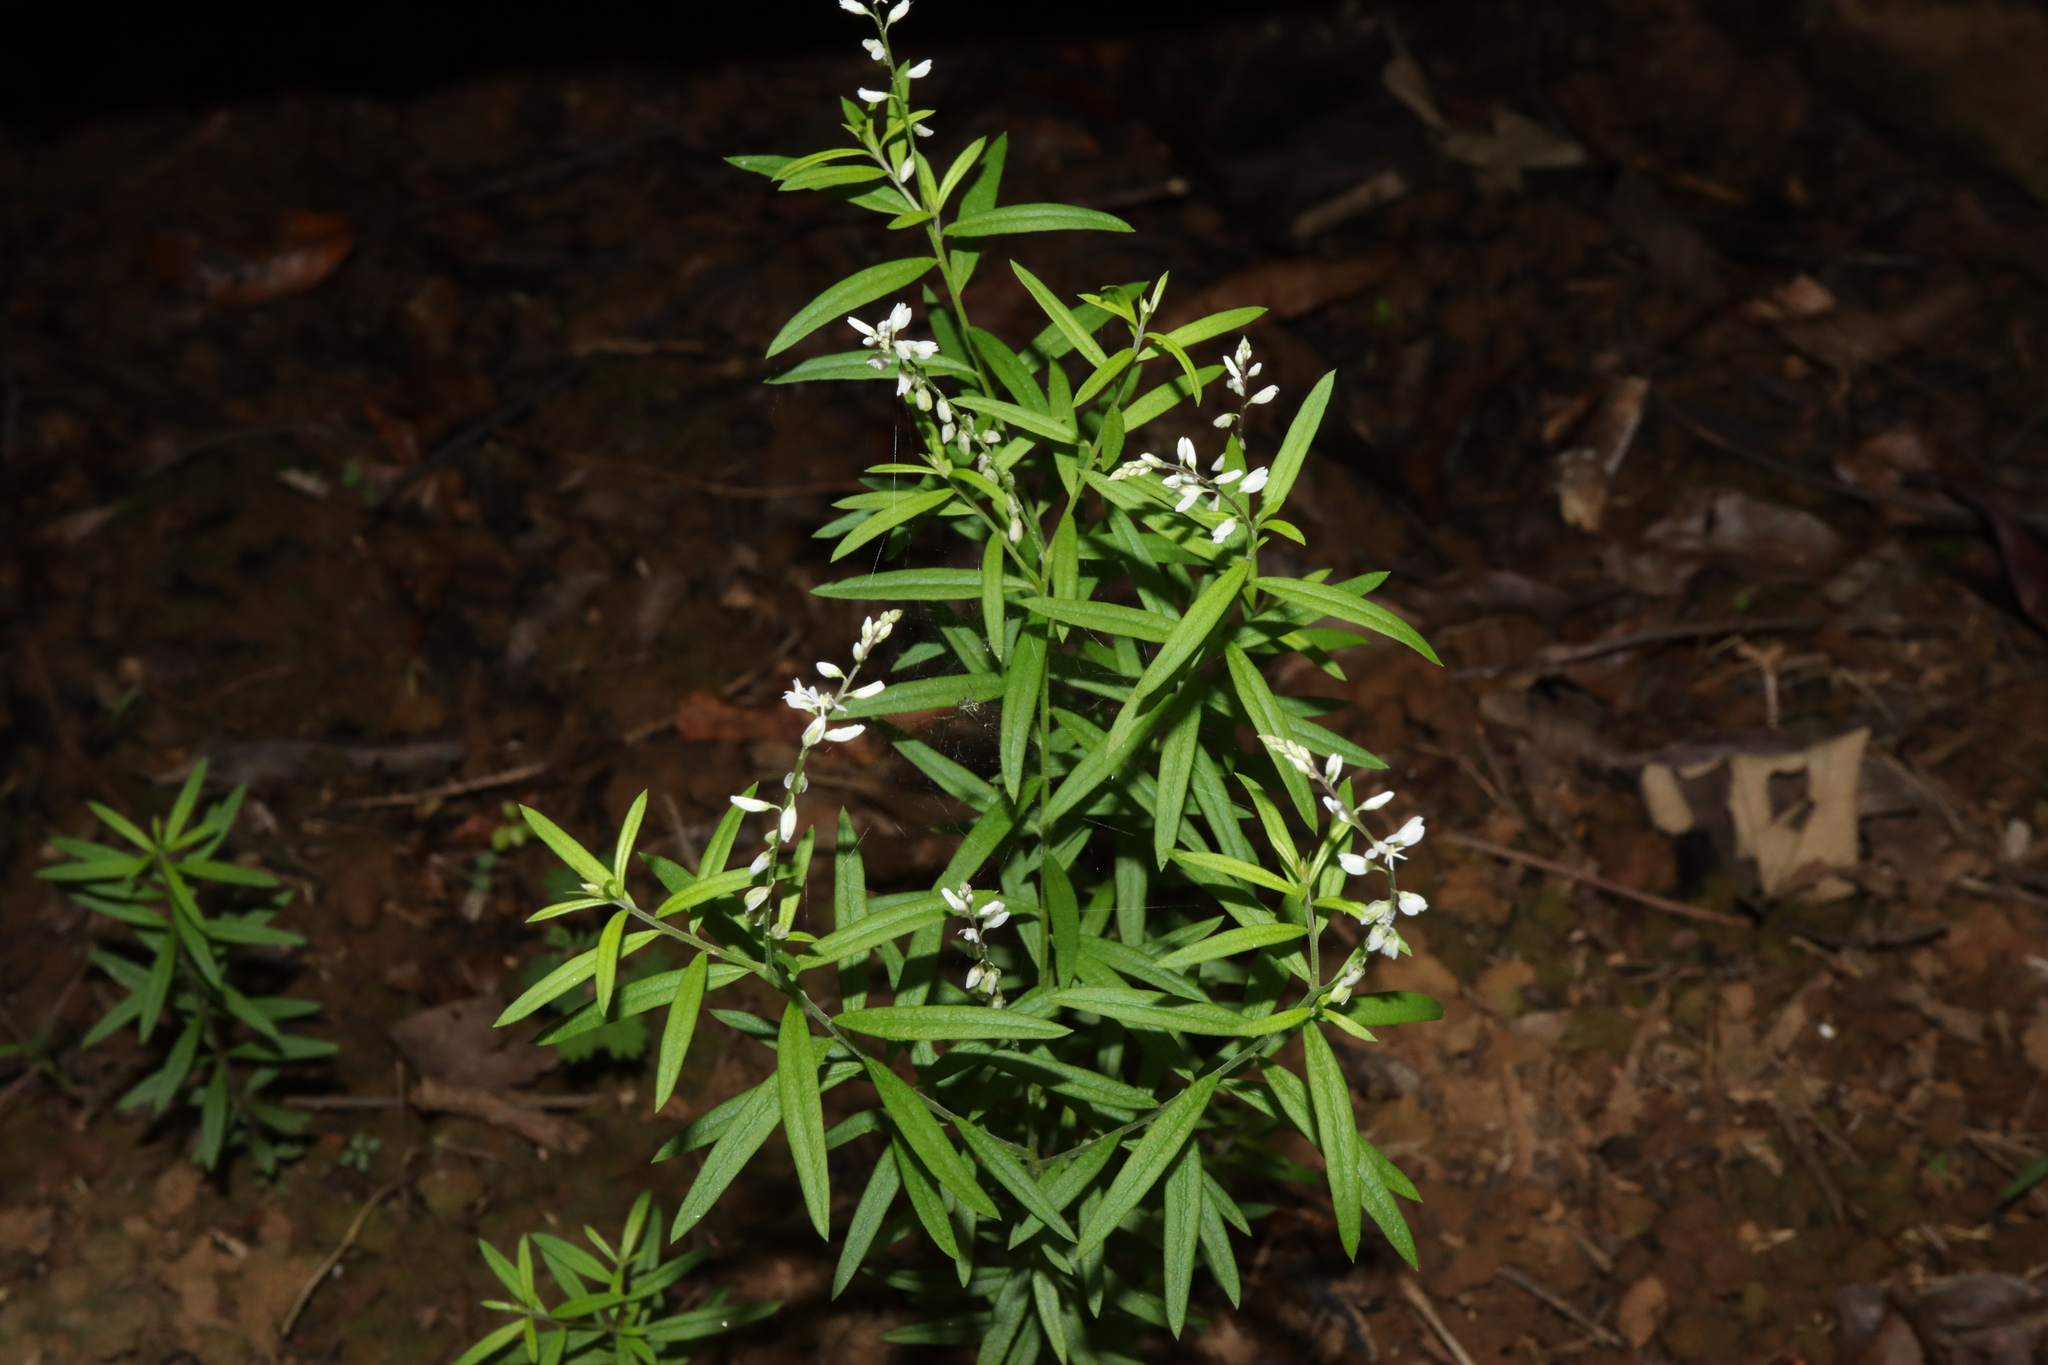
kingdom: Plantae
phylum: Tracheophyta
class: Magnoliopsida
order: Fabales
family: Polygalaceae
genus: Polygala
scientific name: Polygala paniculata
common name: Orosne
